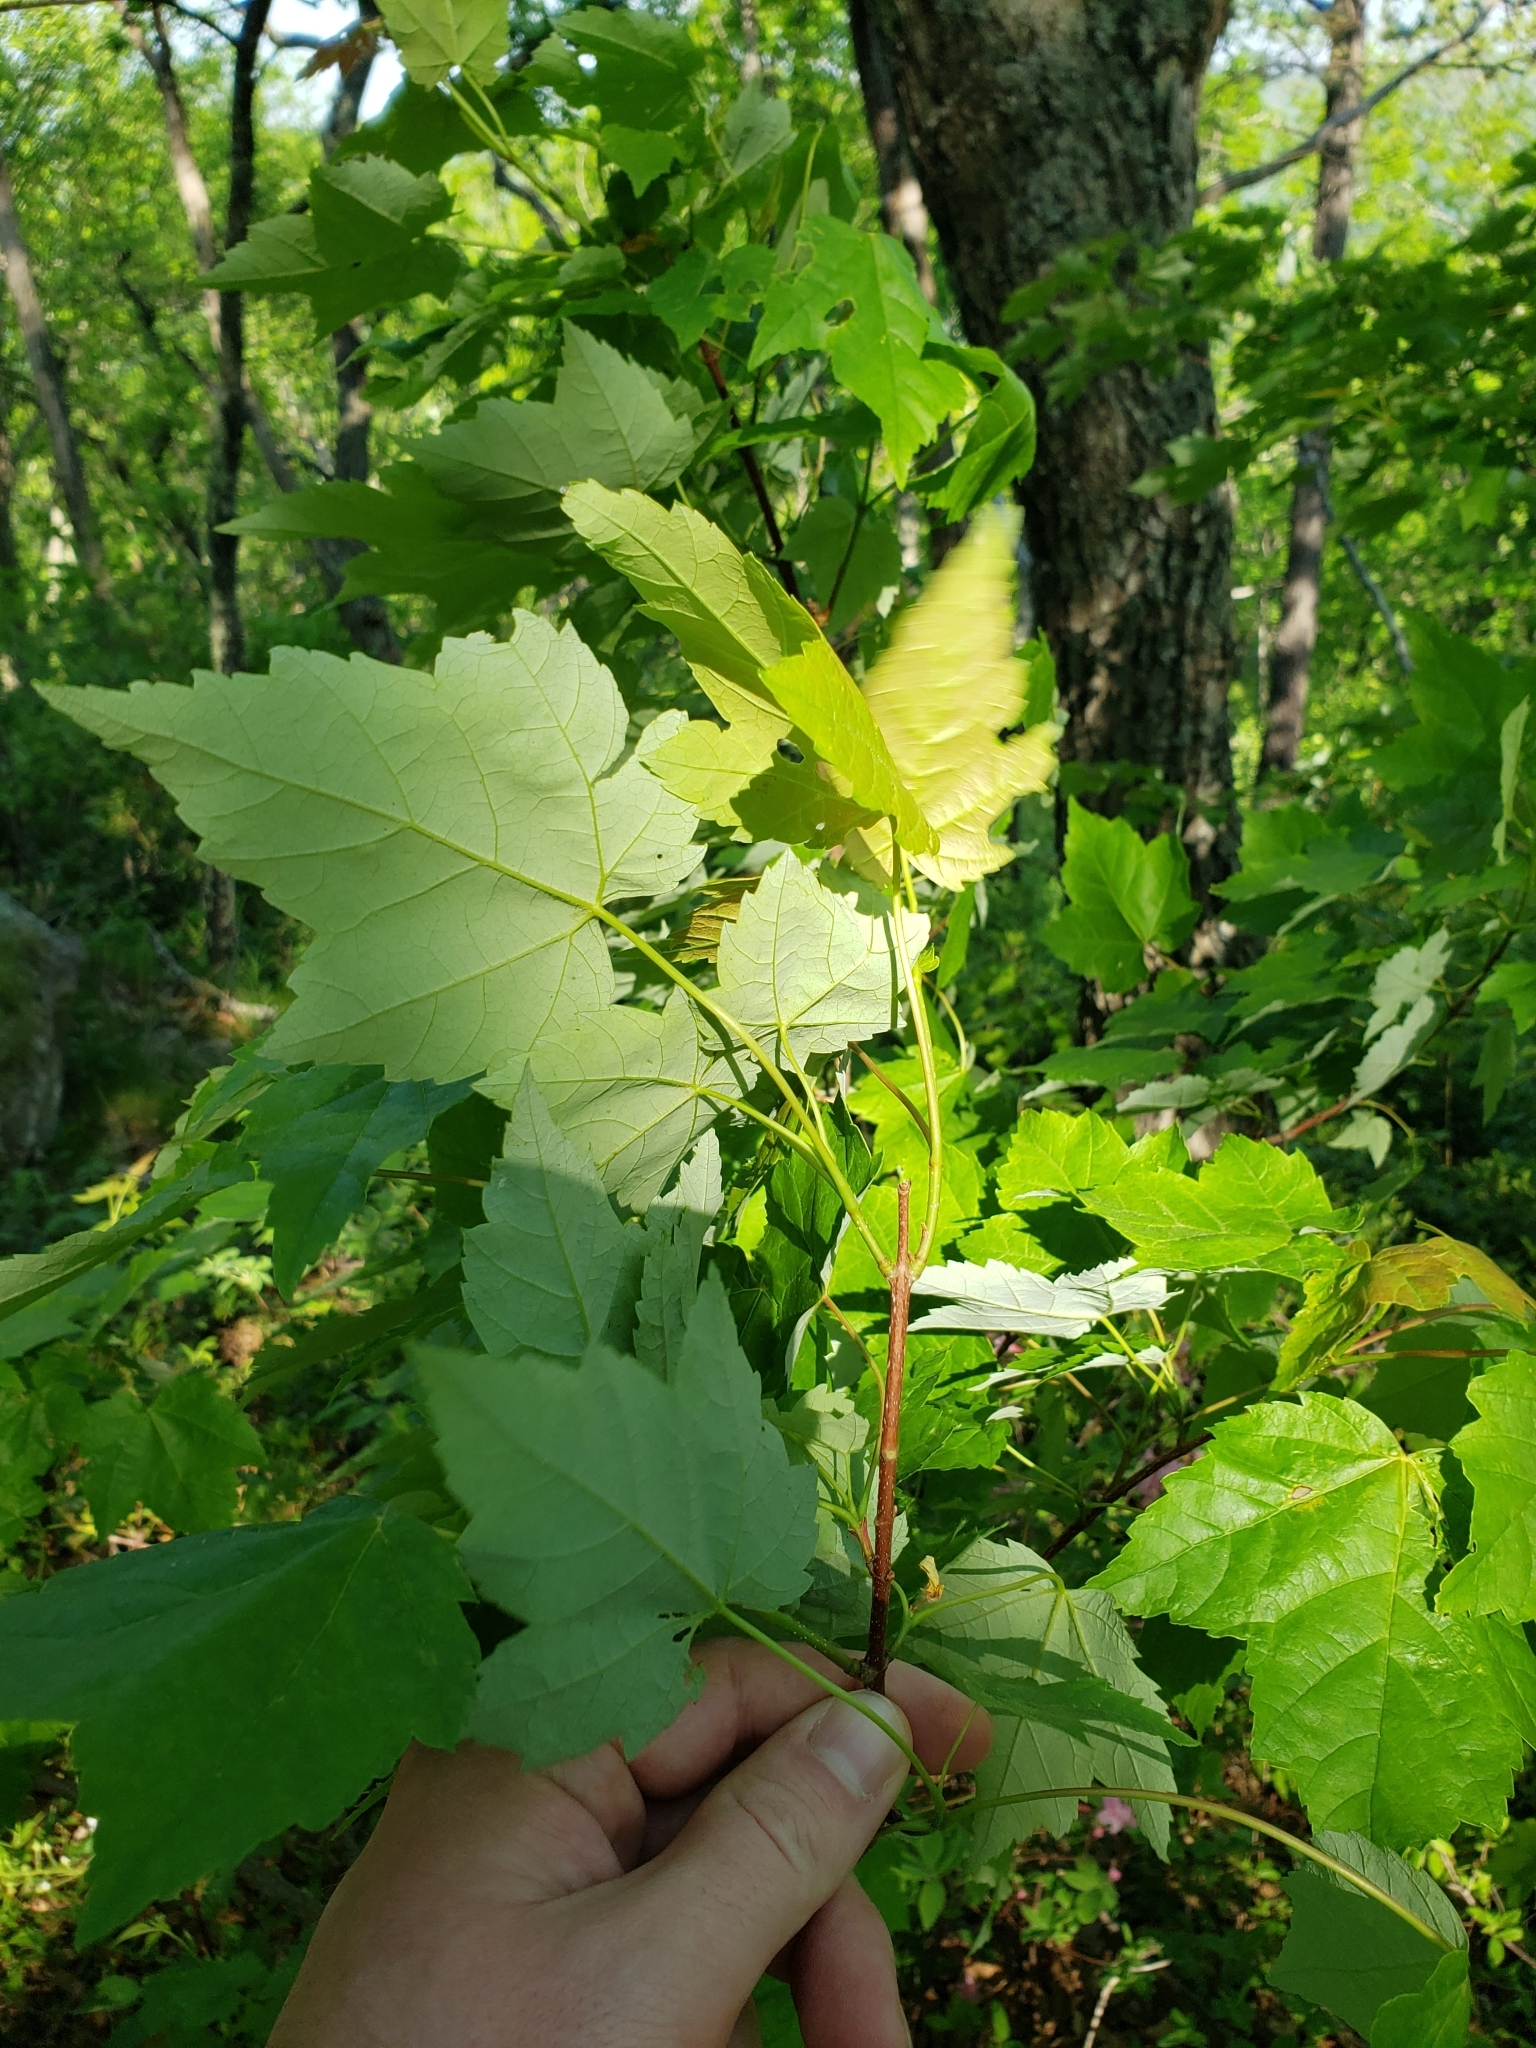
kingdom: Plantae
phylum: Tracheophyta
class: Magnoliopsida
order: Sapindales
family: Sapindaceae
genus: Acer
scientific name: Acer rubrum
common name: Red maple
